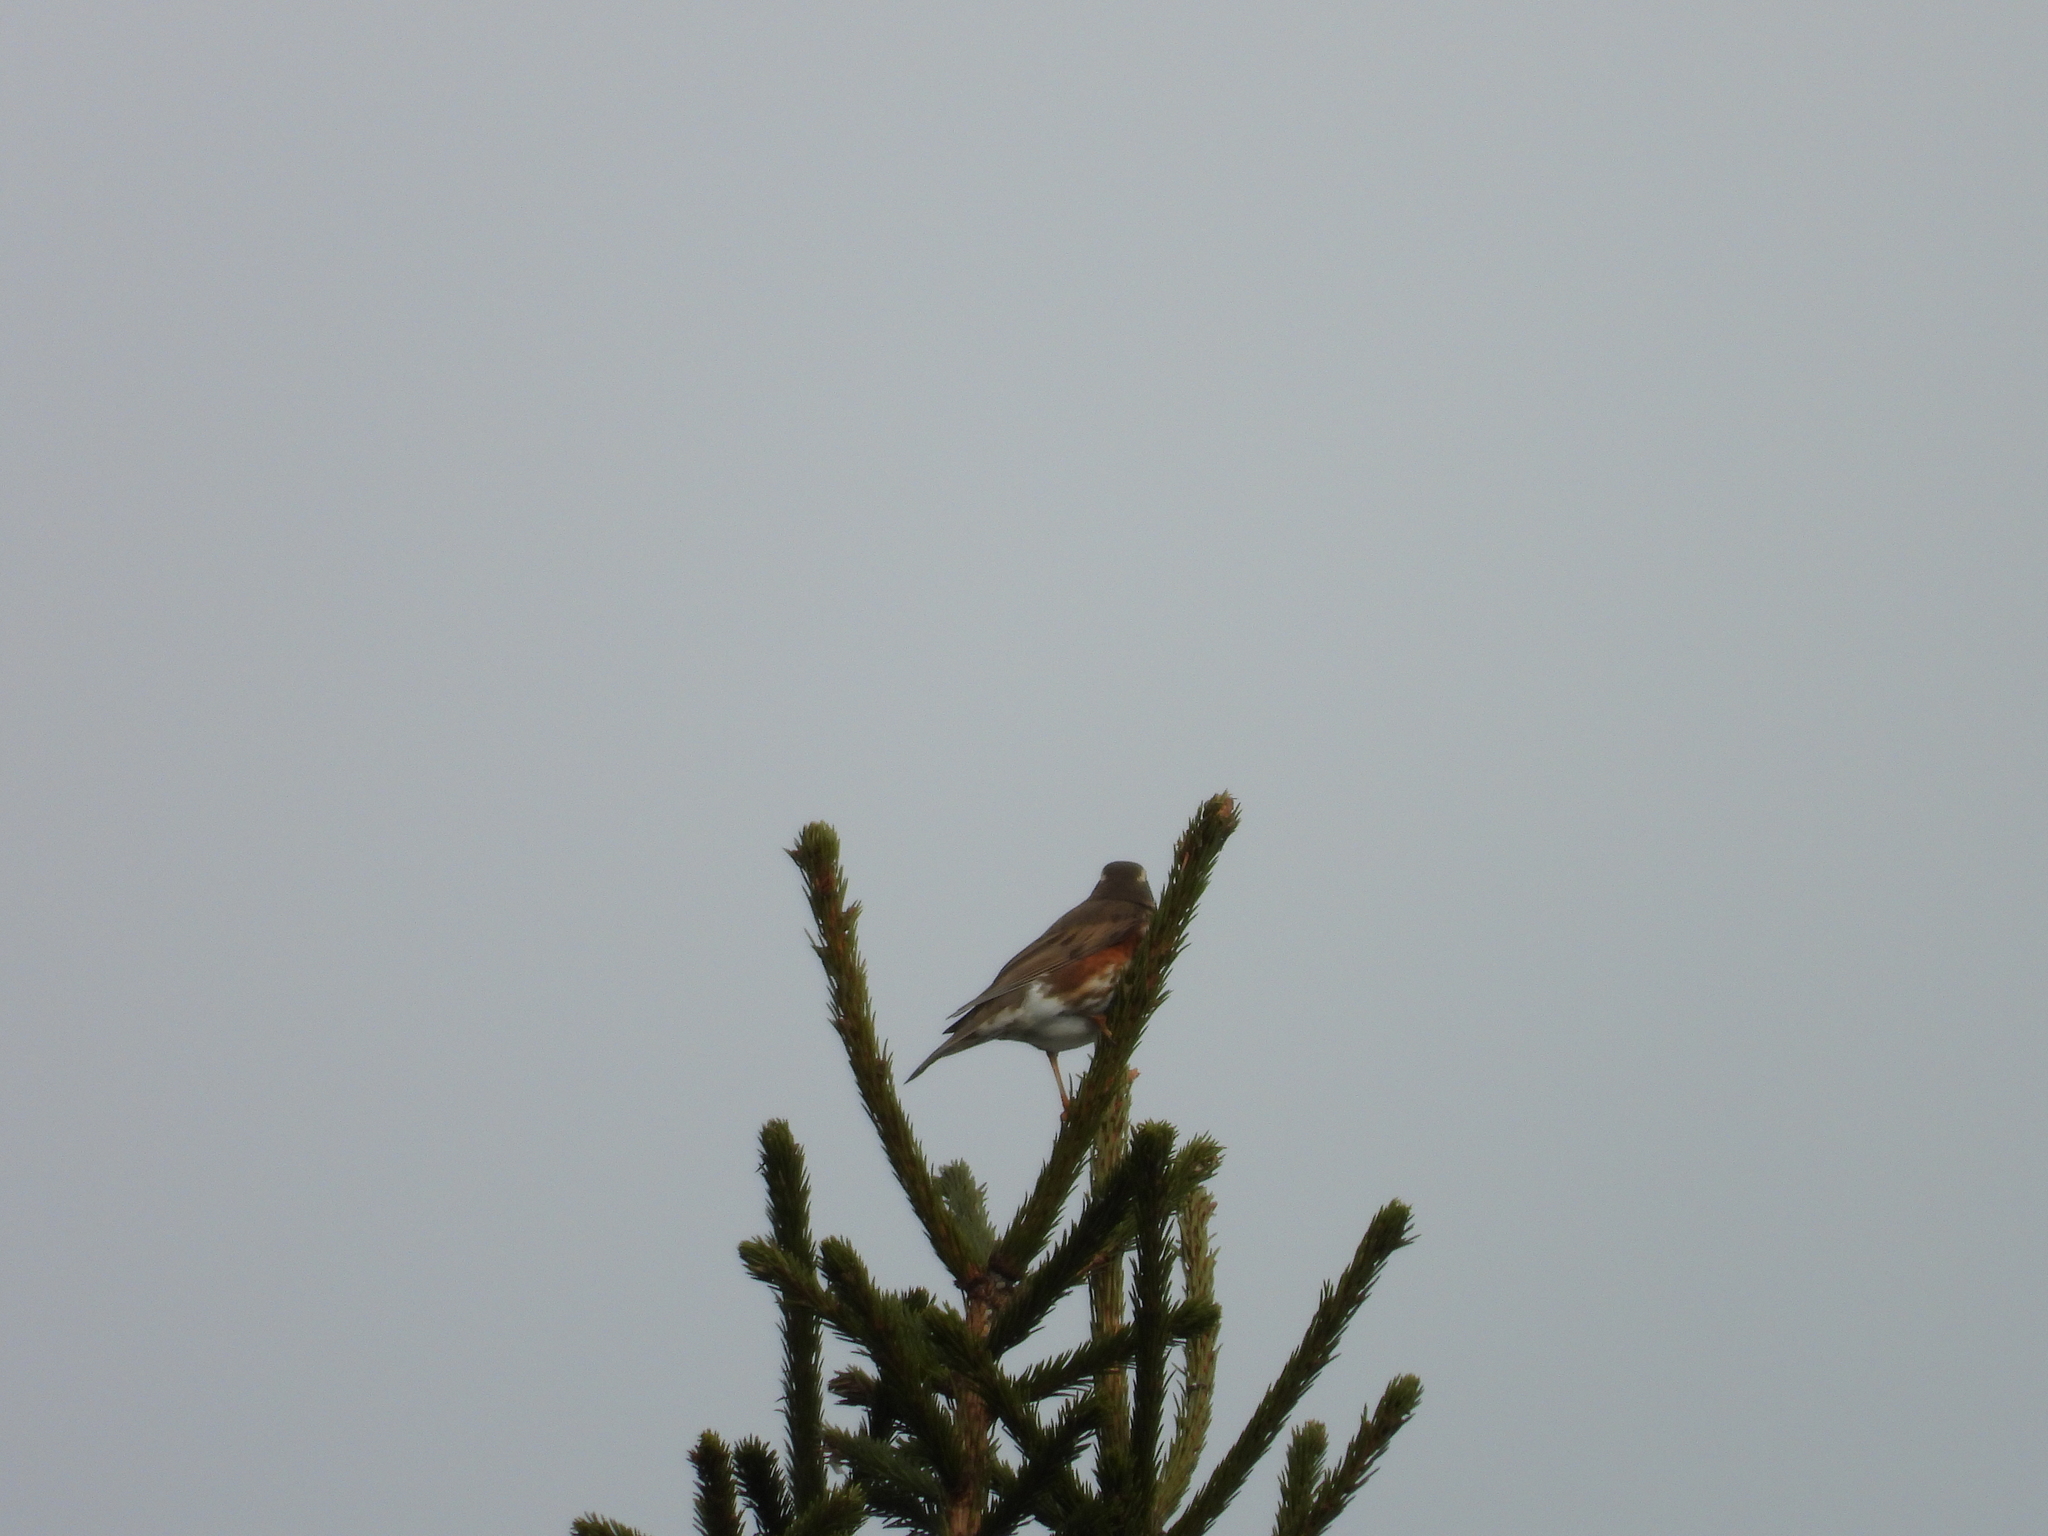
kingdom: Animalia
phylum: Chordata
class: Aves
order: Passeriformes
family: Turdidae
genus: Turdus
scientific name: Turdus iliacus
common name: Redwing
